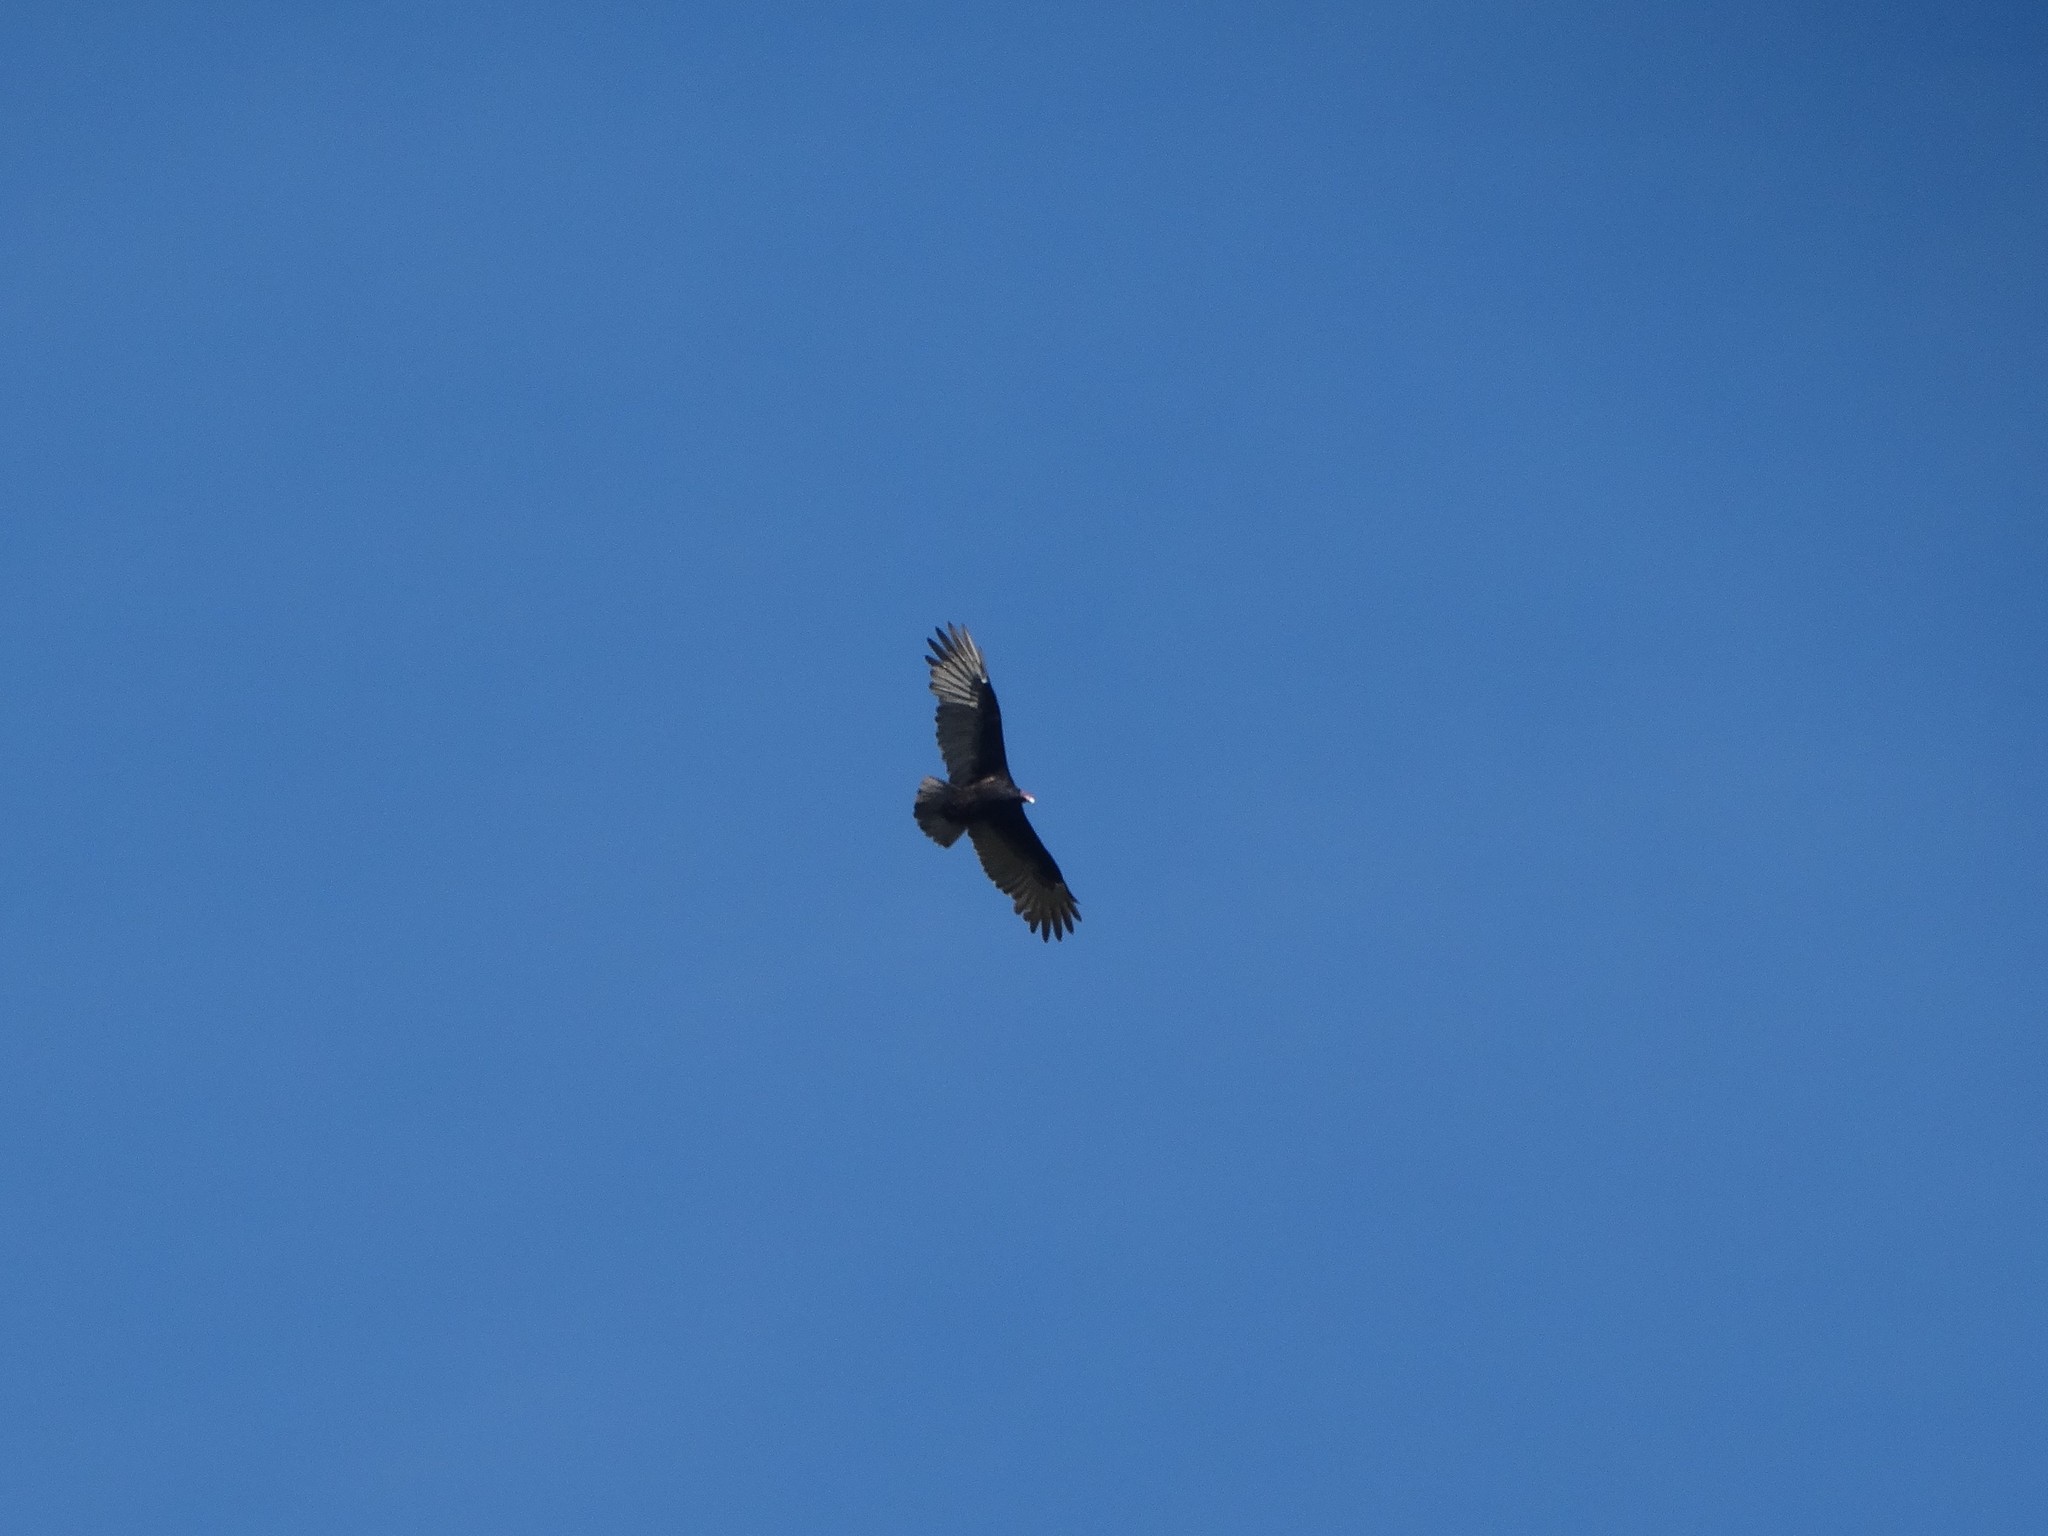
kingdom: Animalia
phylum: Chordata
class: Aves
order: Accipitriformes
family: Cathartidae
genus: Cathartes
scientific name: Cathartes aura
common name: Turkey vulture
